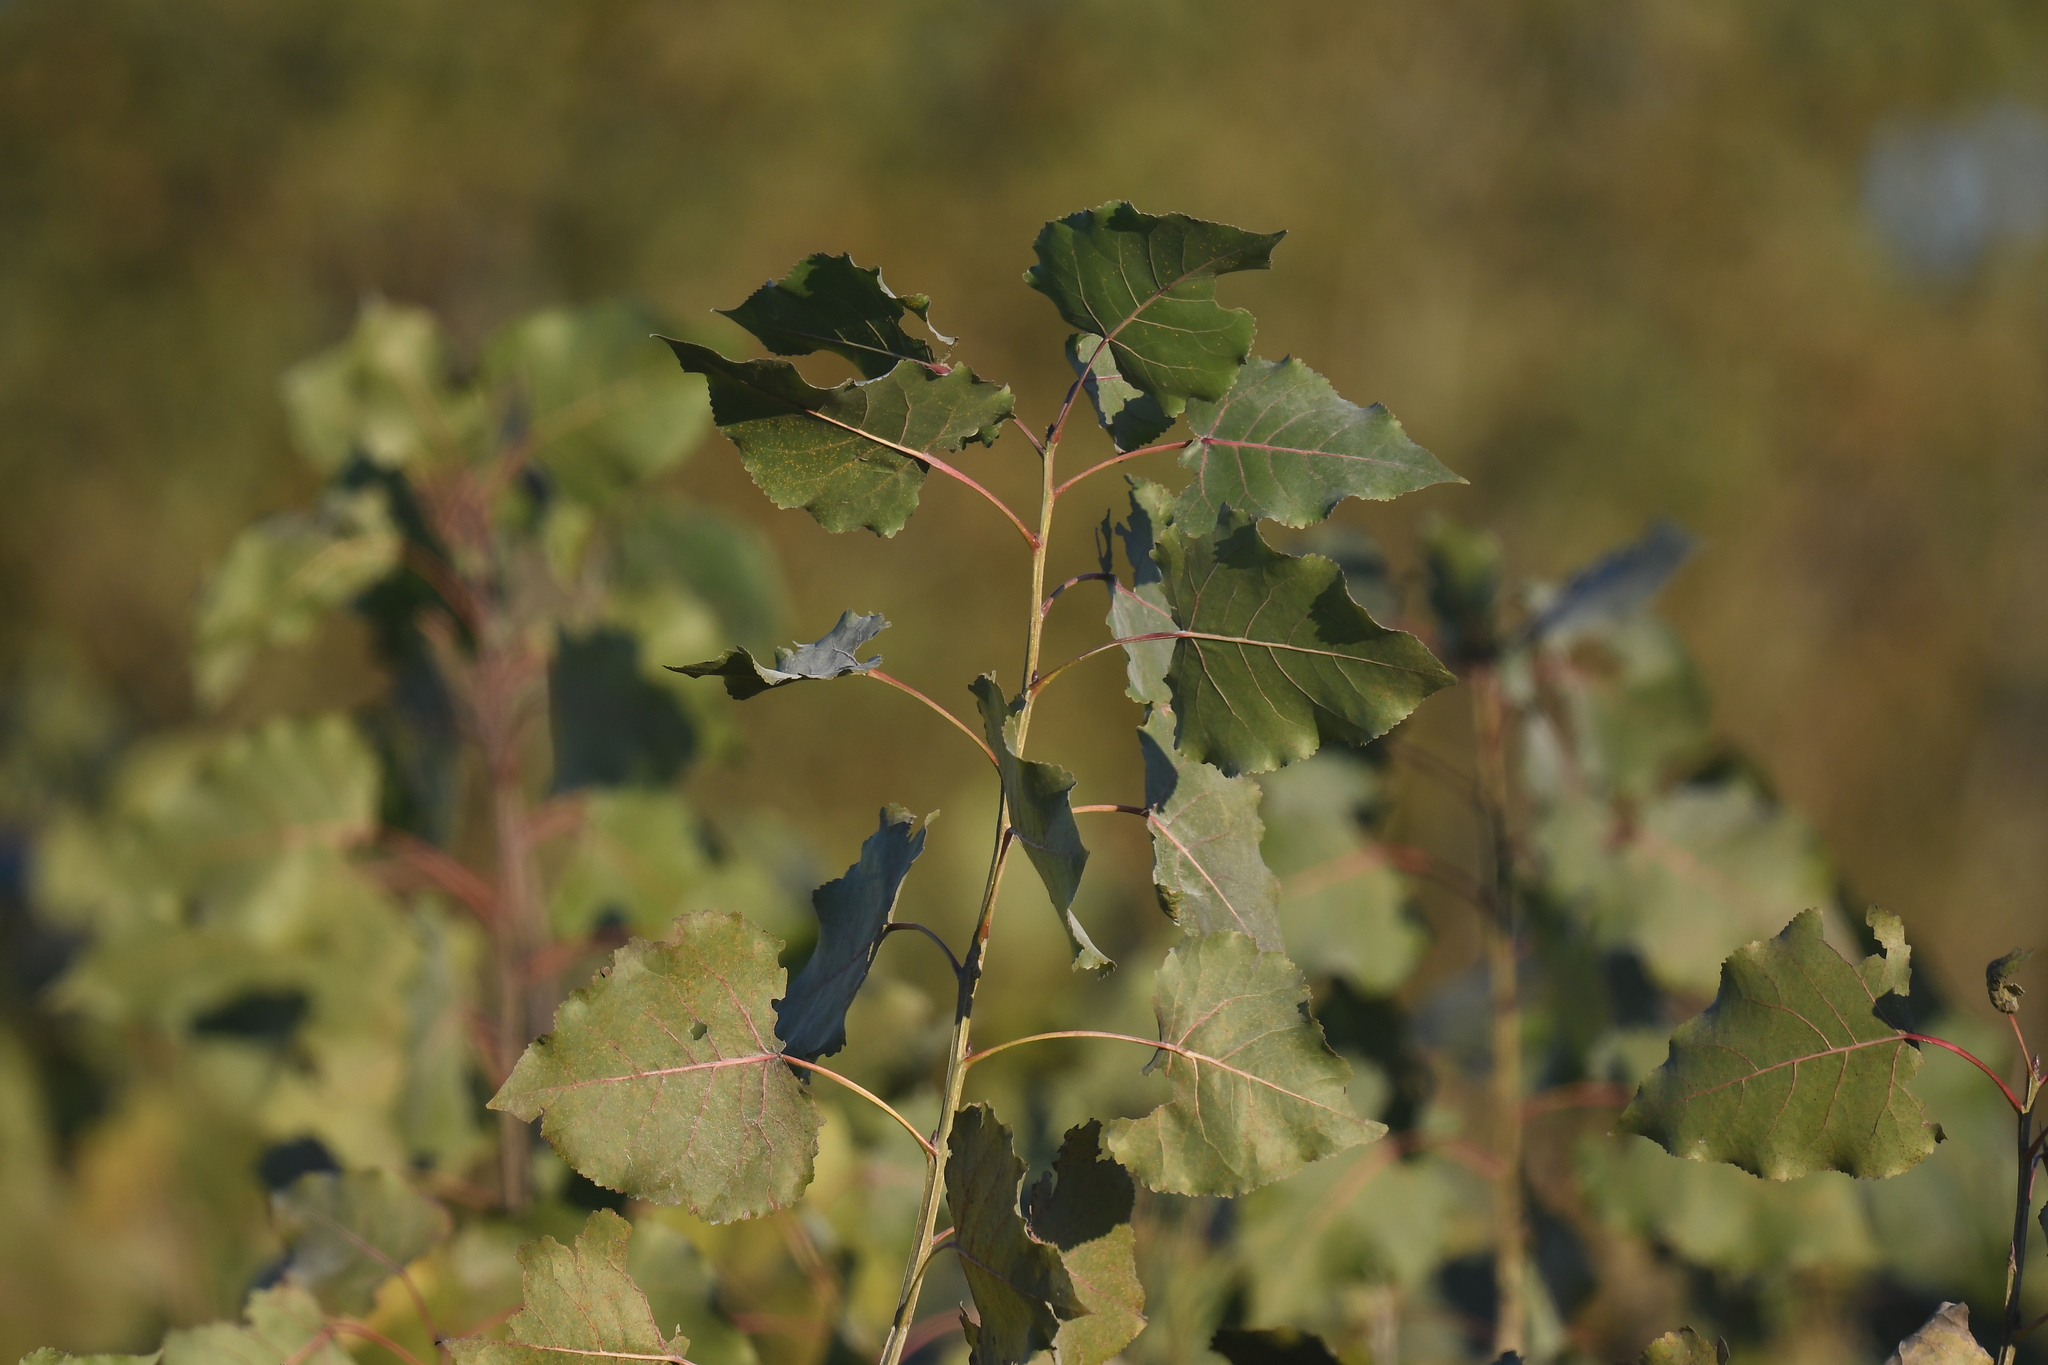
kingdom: Plantae
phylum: Tracheophyta
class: Magnoliopsida
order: Malpighiales
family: Salicaceae
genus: Populus
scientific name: Populus deltoides
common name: Eastern cottonwood
